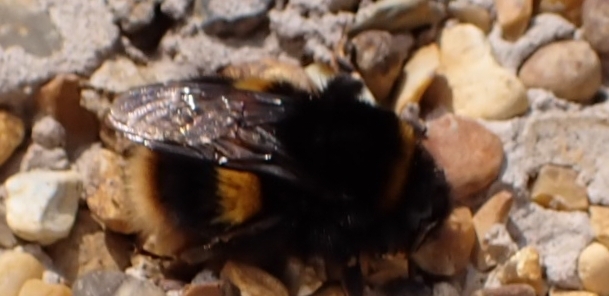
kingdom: Animalia
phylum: Arthropoda
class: Insecta
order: Hymenoptera
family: Apidae
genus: Bombus
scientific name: Bombus terrestris
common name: Buff-tailed bumblebee
